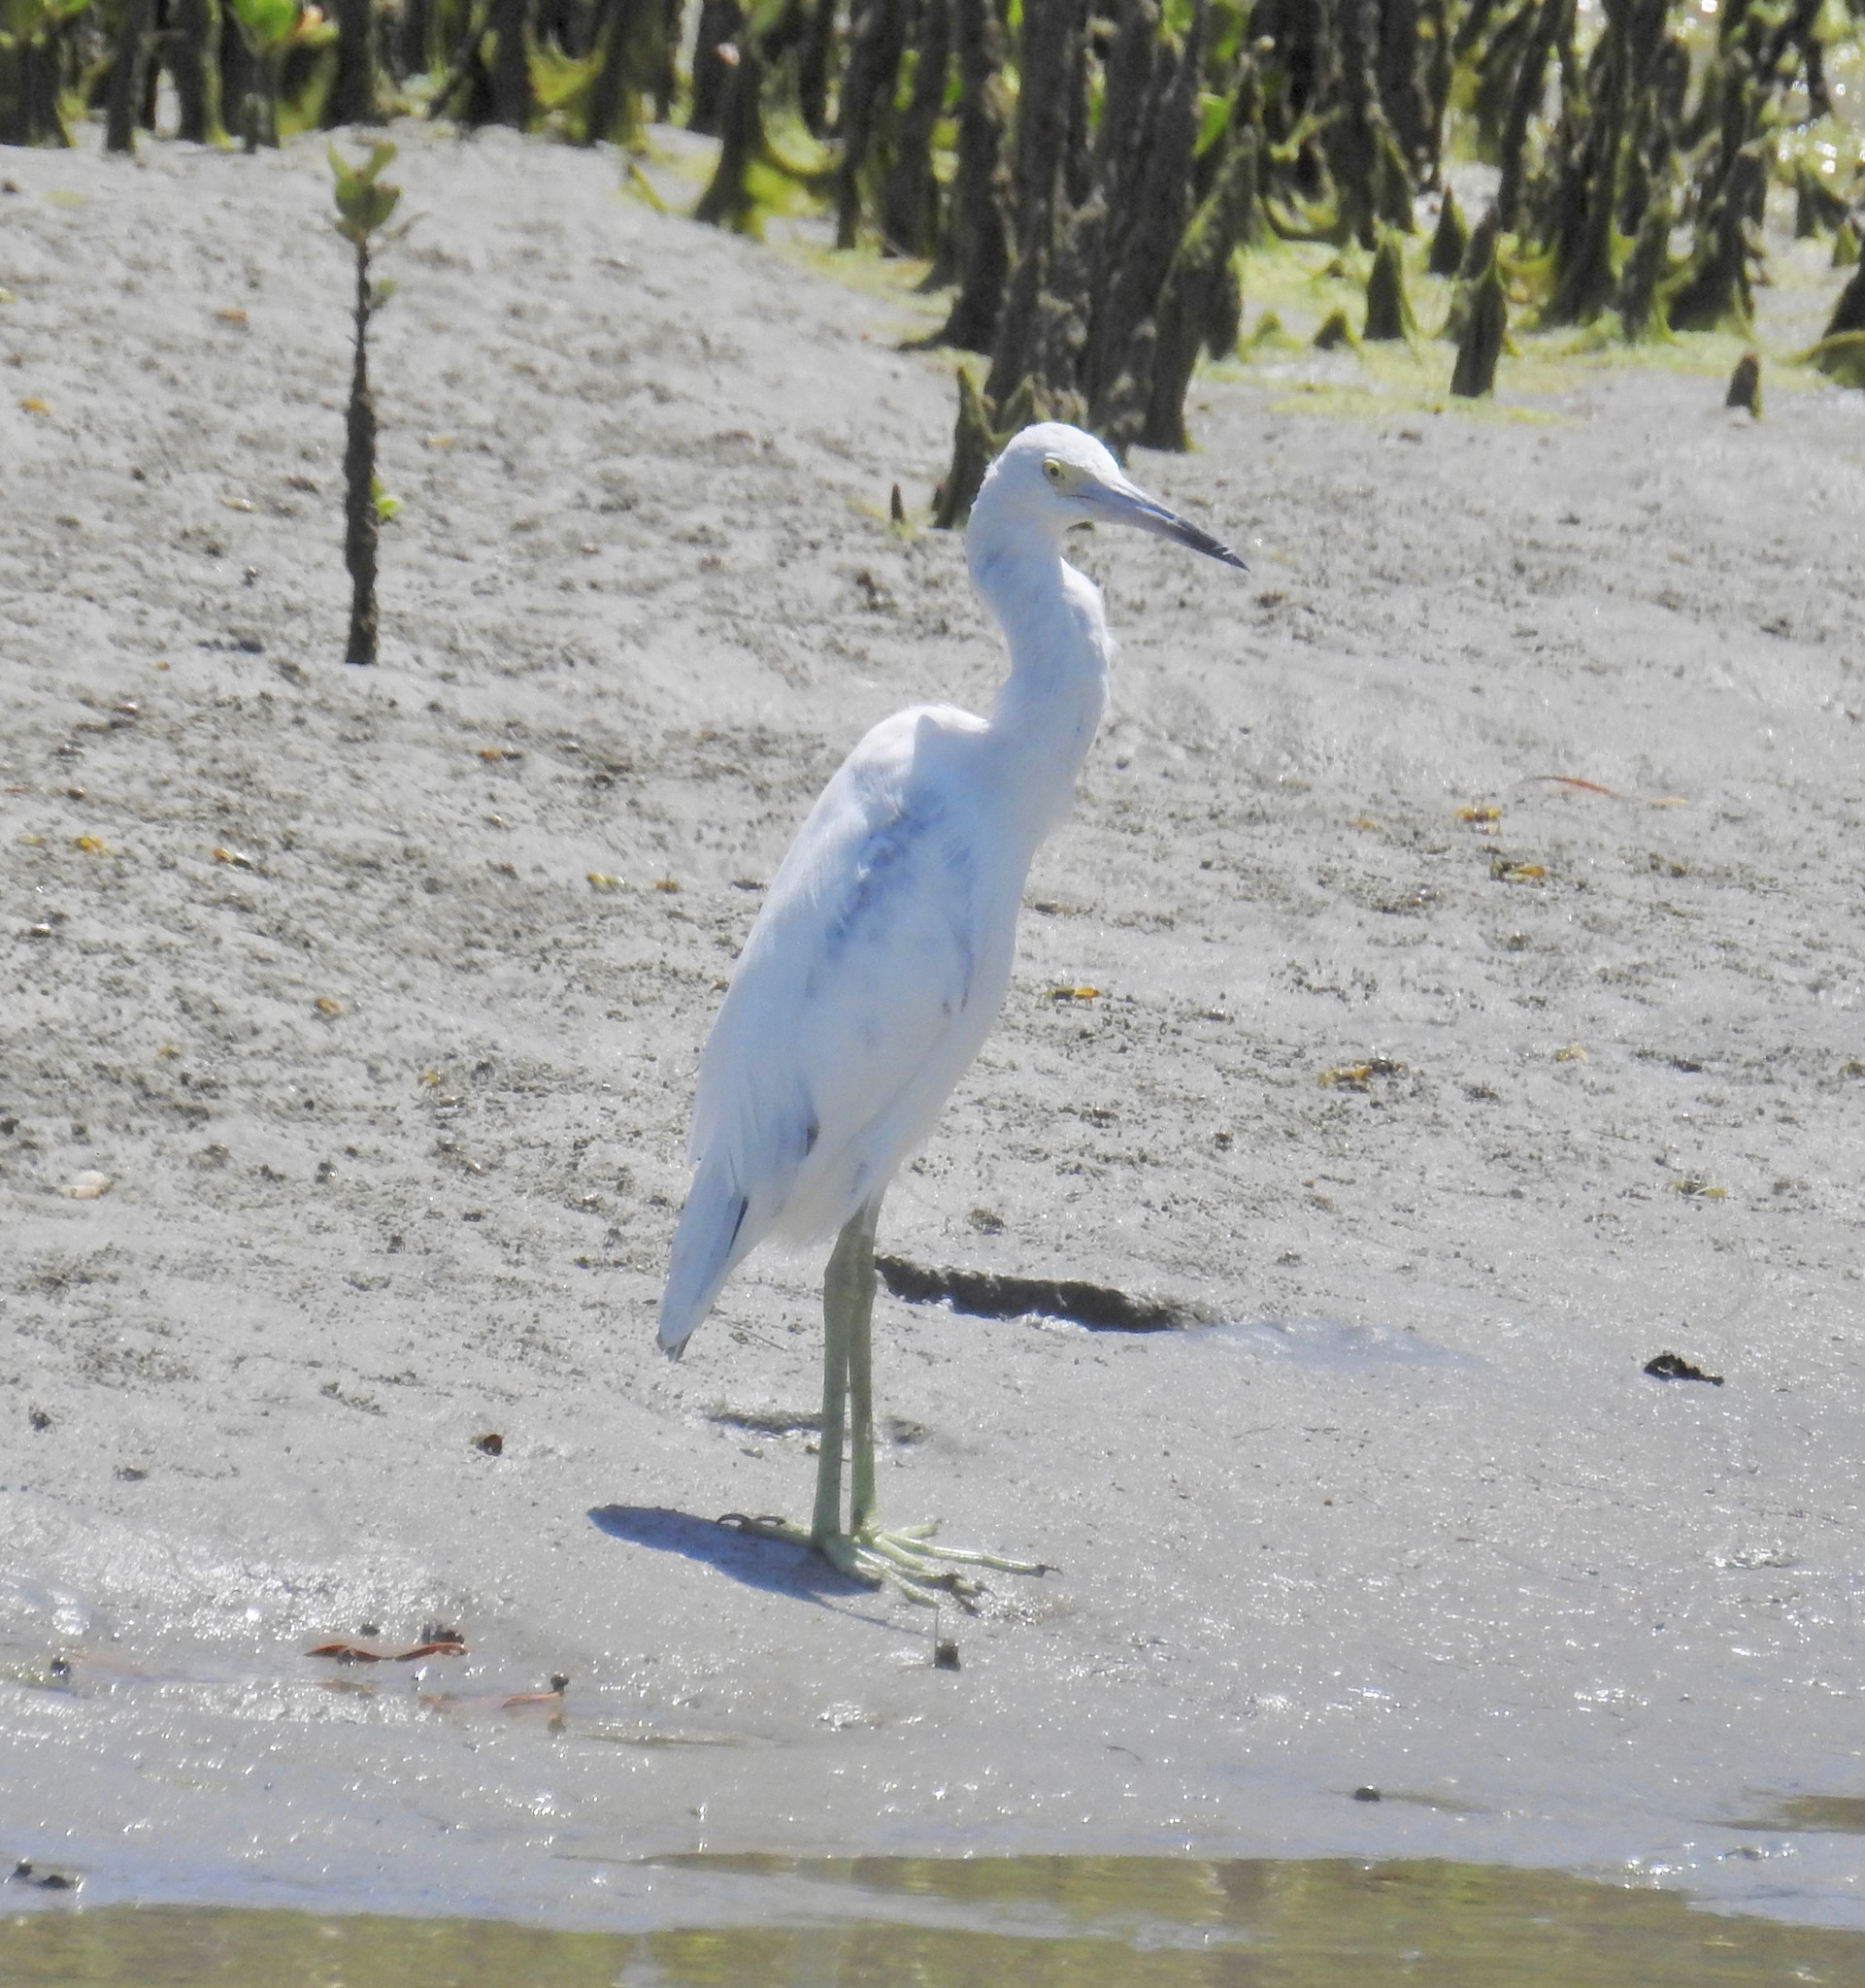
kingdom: Animalia
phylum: Chordata
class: Aves
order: Pelecaniformes
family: Ardeidae
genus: Egretta
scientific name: Egretta caerulea
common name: Little blue heron
